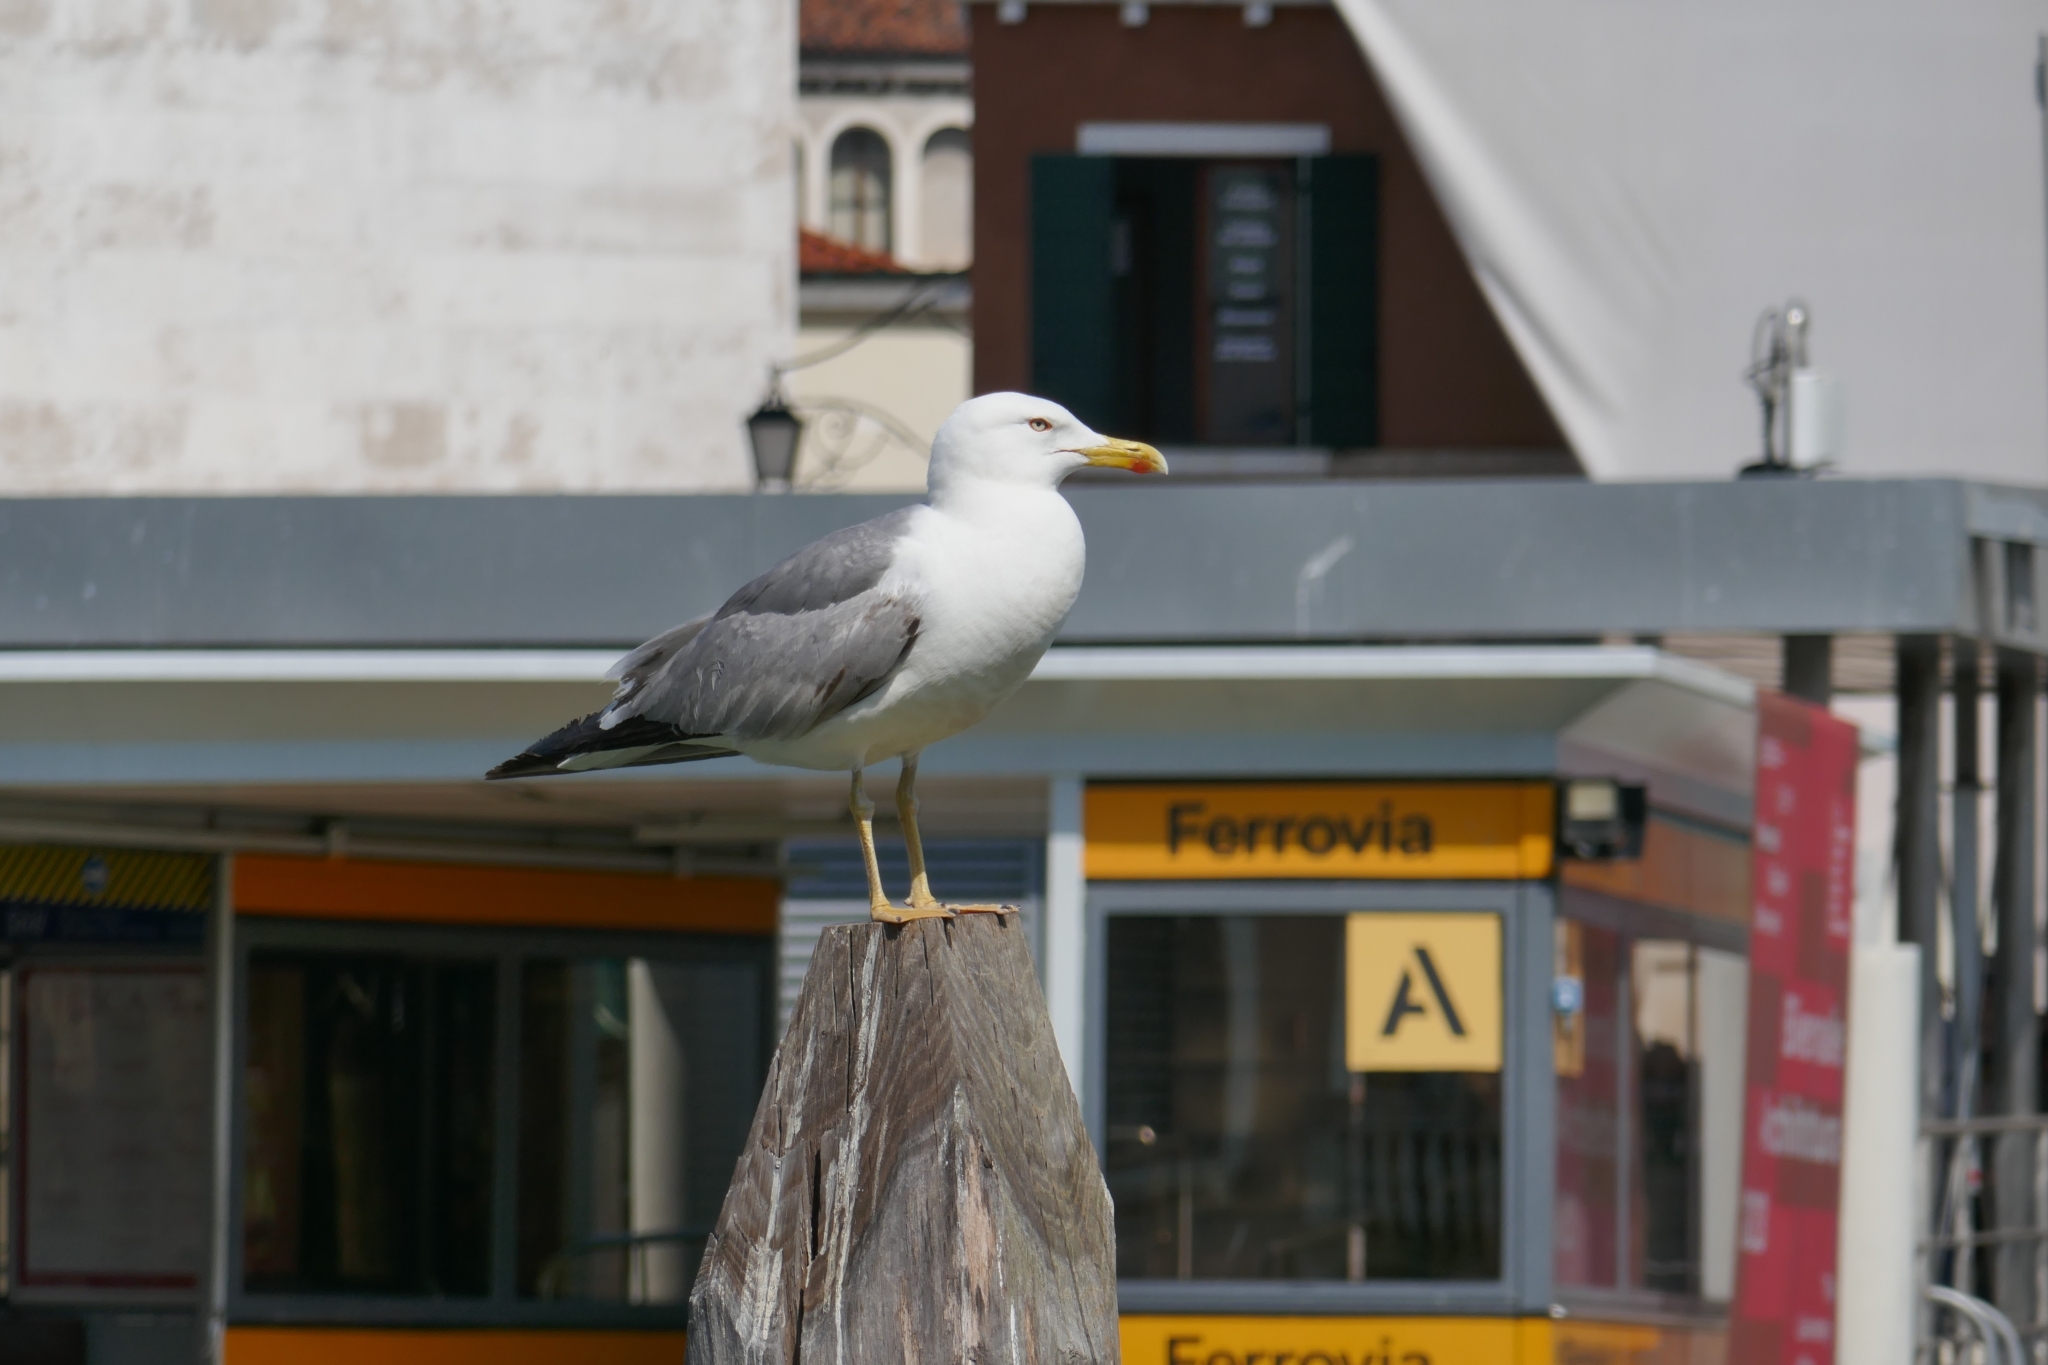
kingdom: Animalia
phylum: Chordata
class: Aves
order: Charadriiformes
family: Laridae
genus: Larus
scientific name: Larus michahellis
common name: Yellow-legged gull
